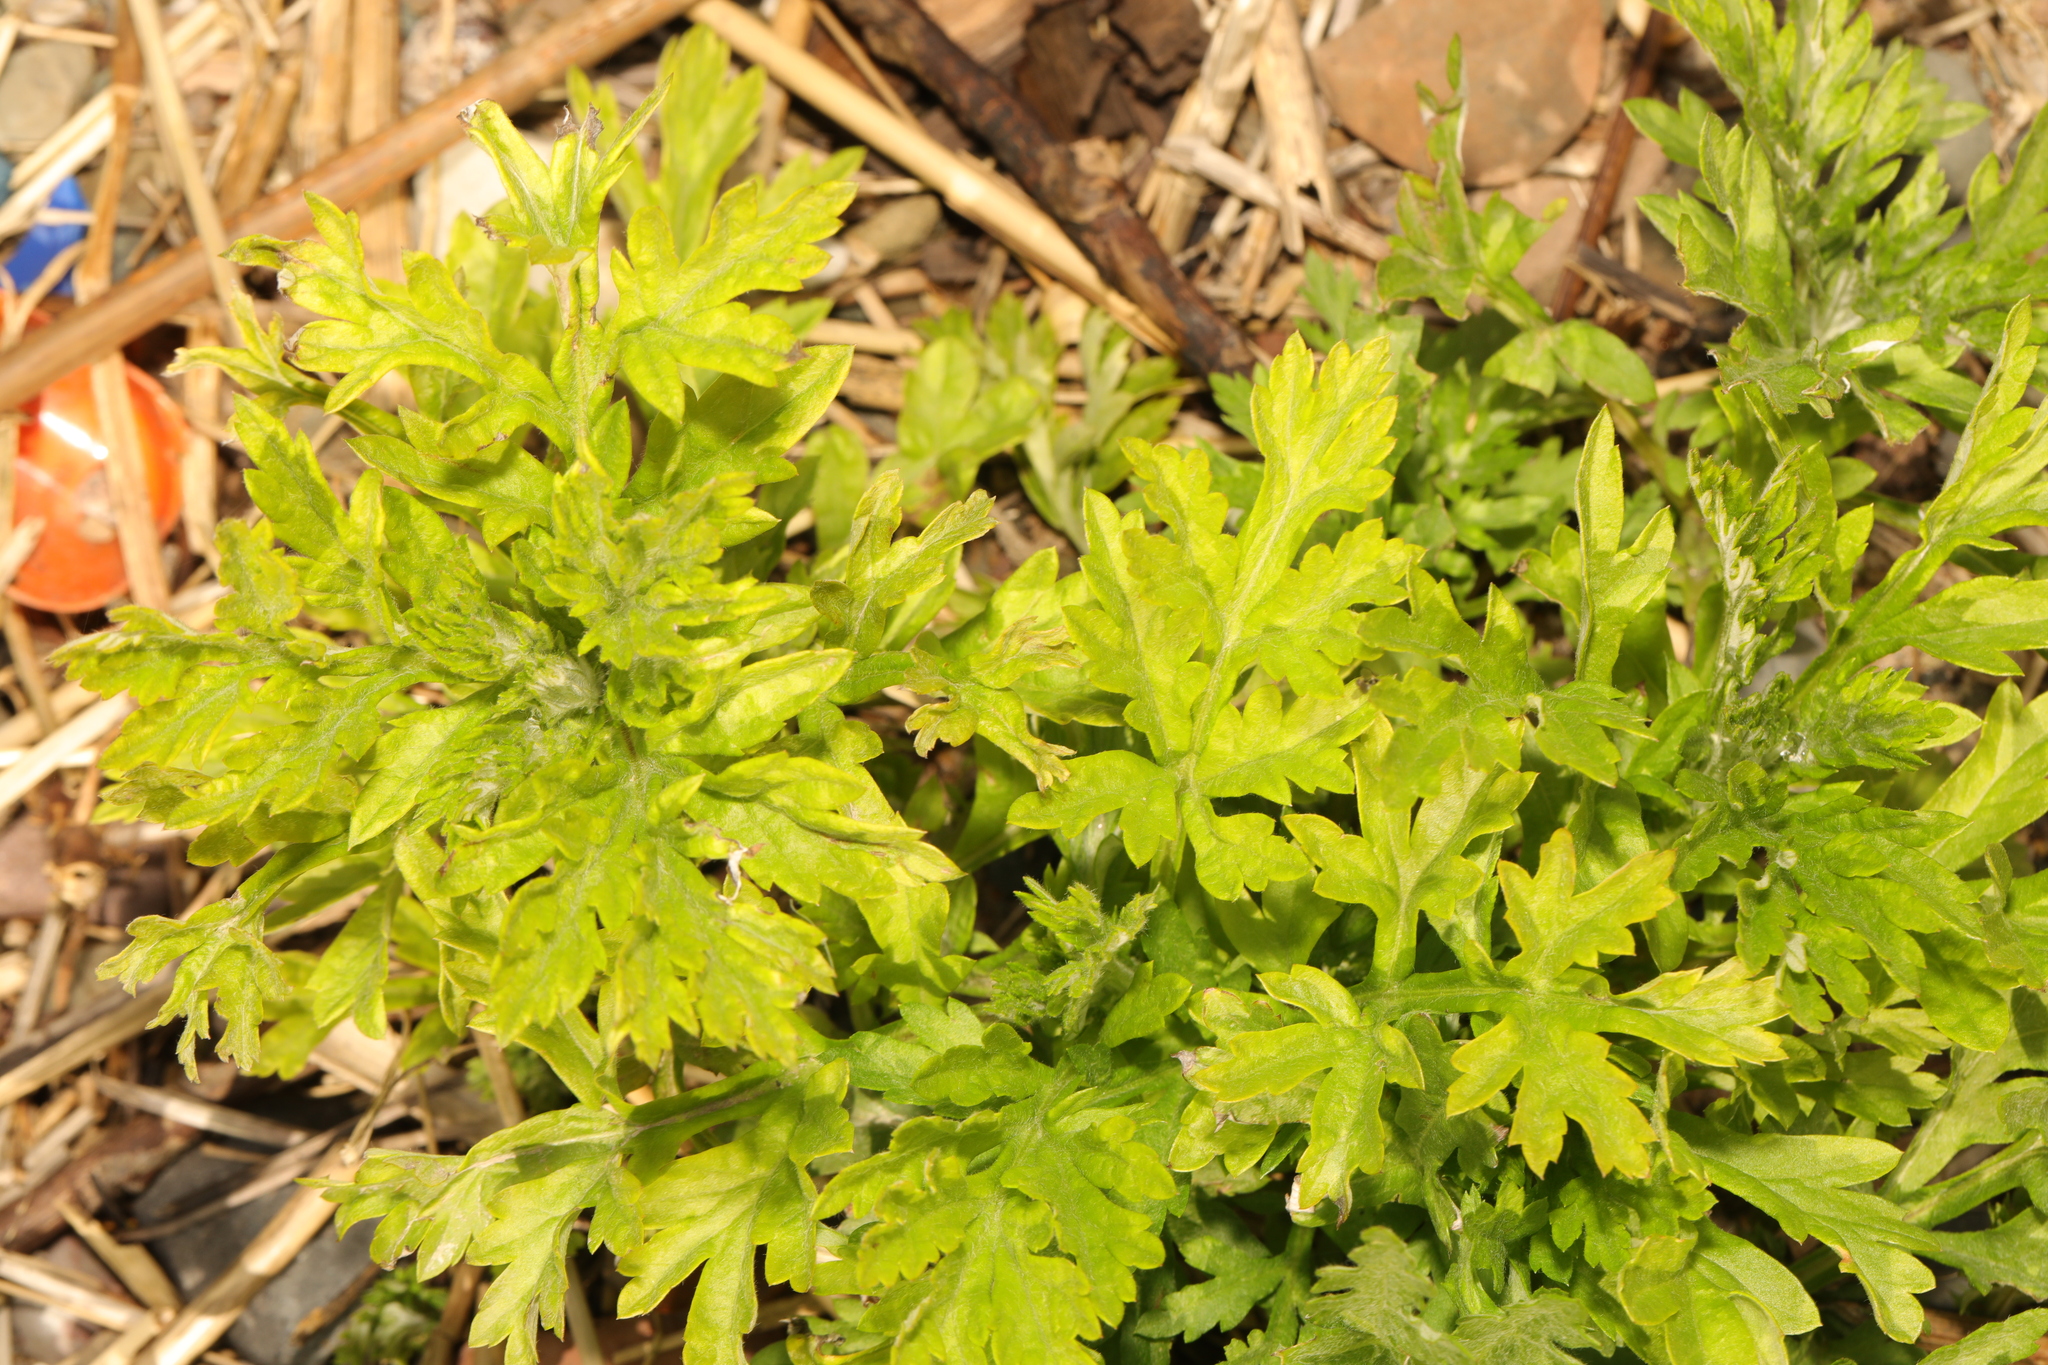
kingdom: Plantae
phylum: Tracheophyta
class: Magnoliopsida
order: Asterales
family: Asteraceae
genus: Artemisia
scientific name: Artemisia vulgaris
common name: Mugwort
